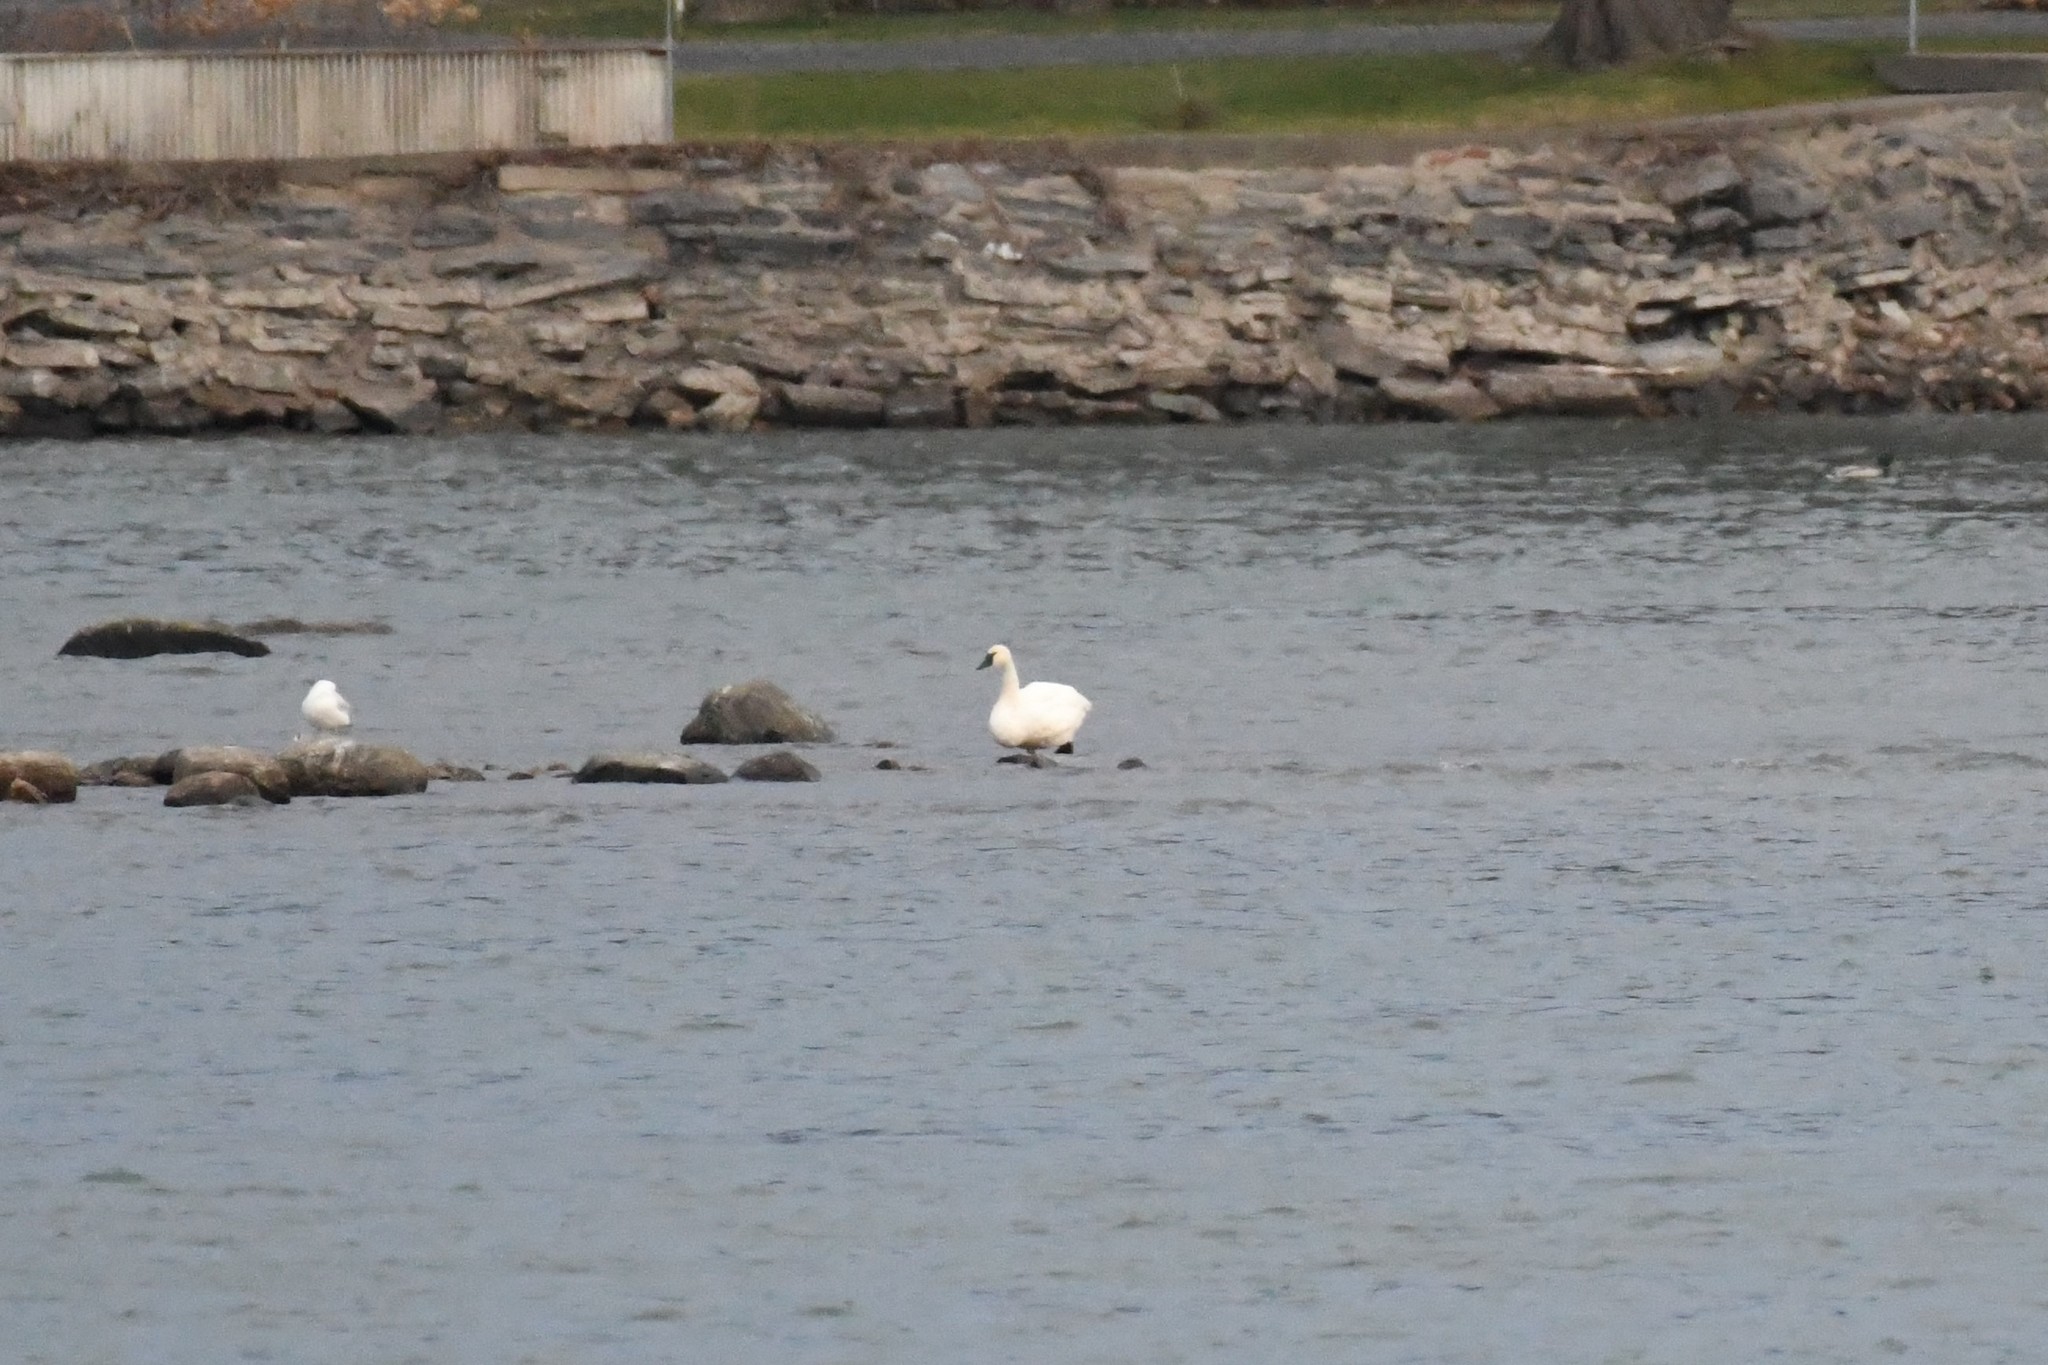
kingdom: Animalia
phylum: Chordata
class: Aves
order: Anseriformes
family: Anatidae
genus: Cygnus
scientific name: Cygnus columbianus
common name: Tundra swan
